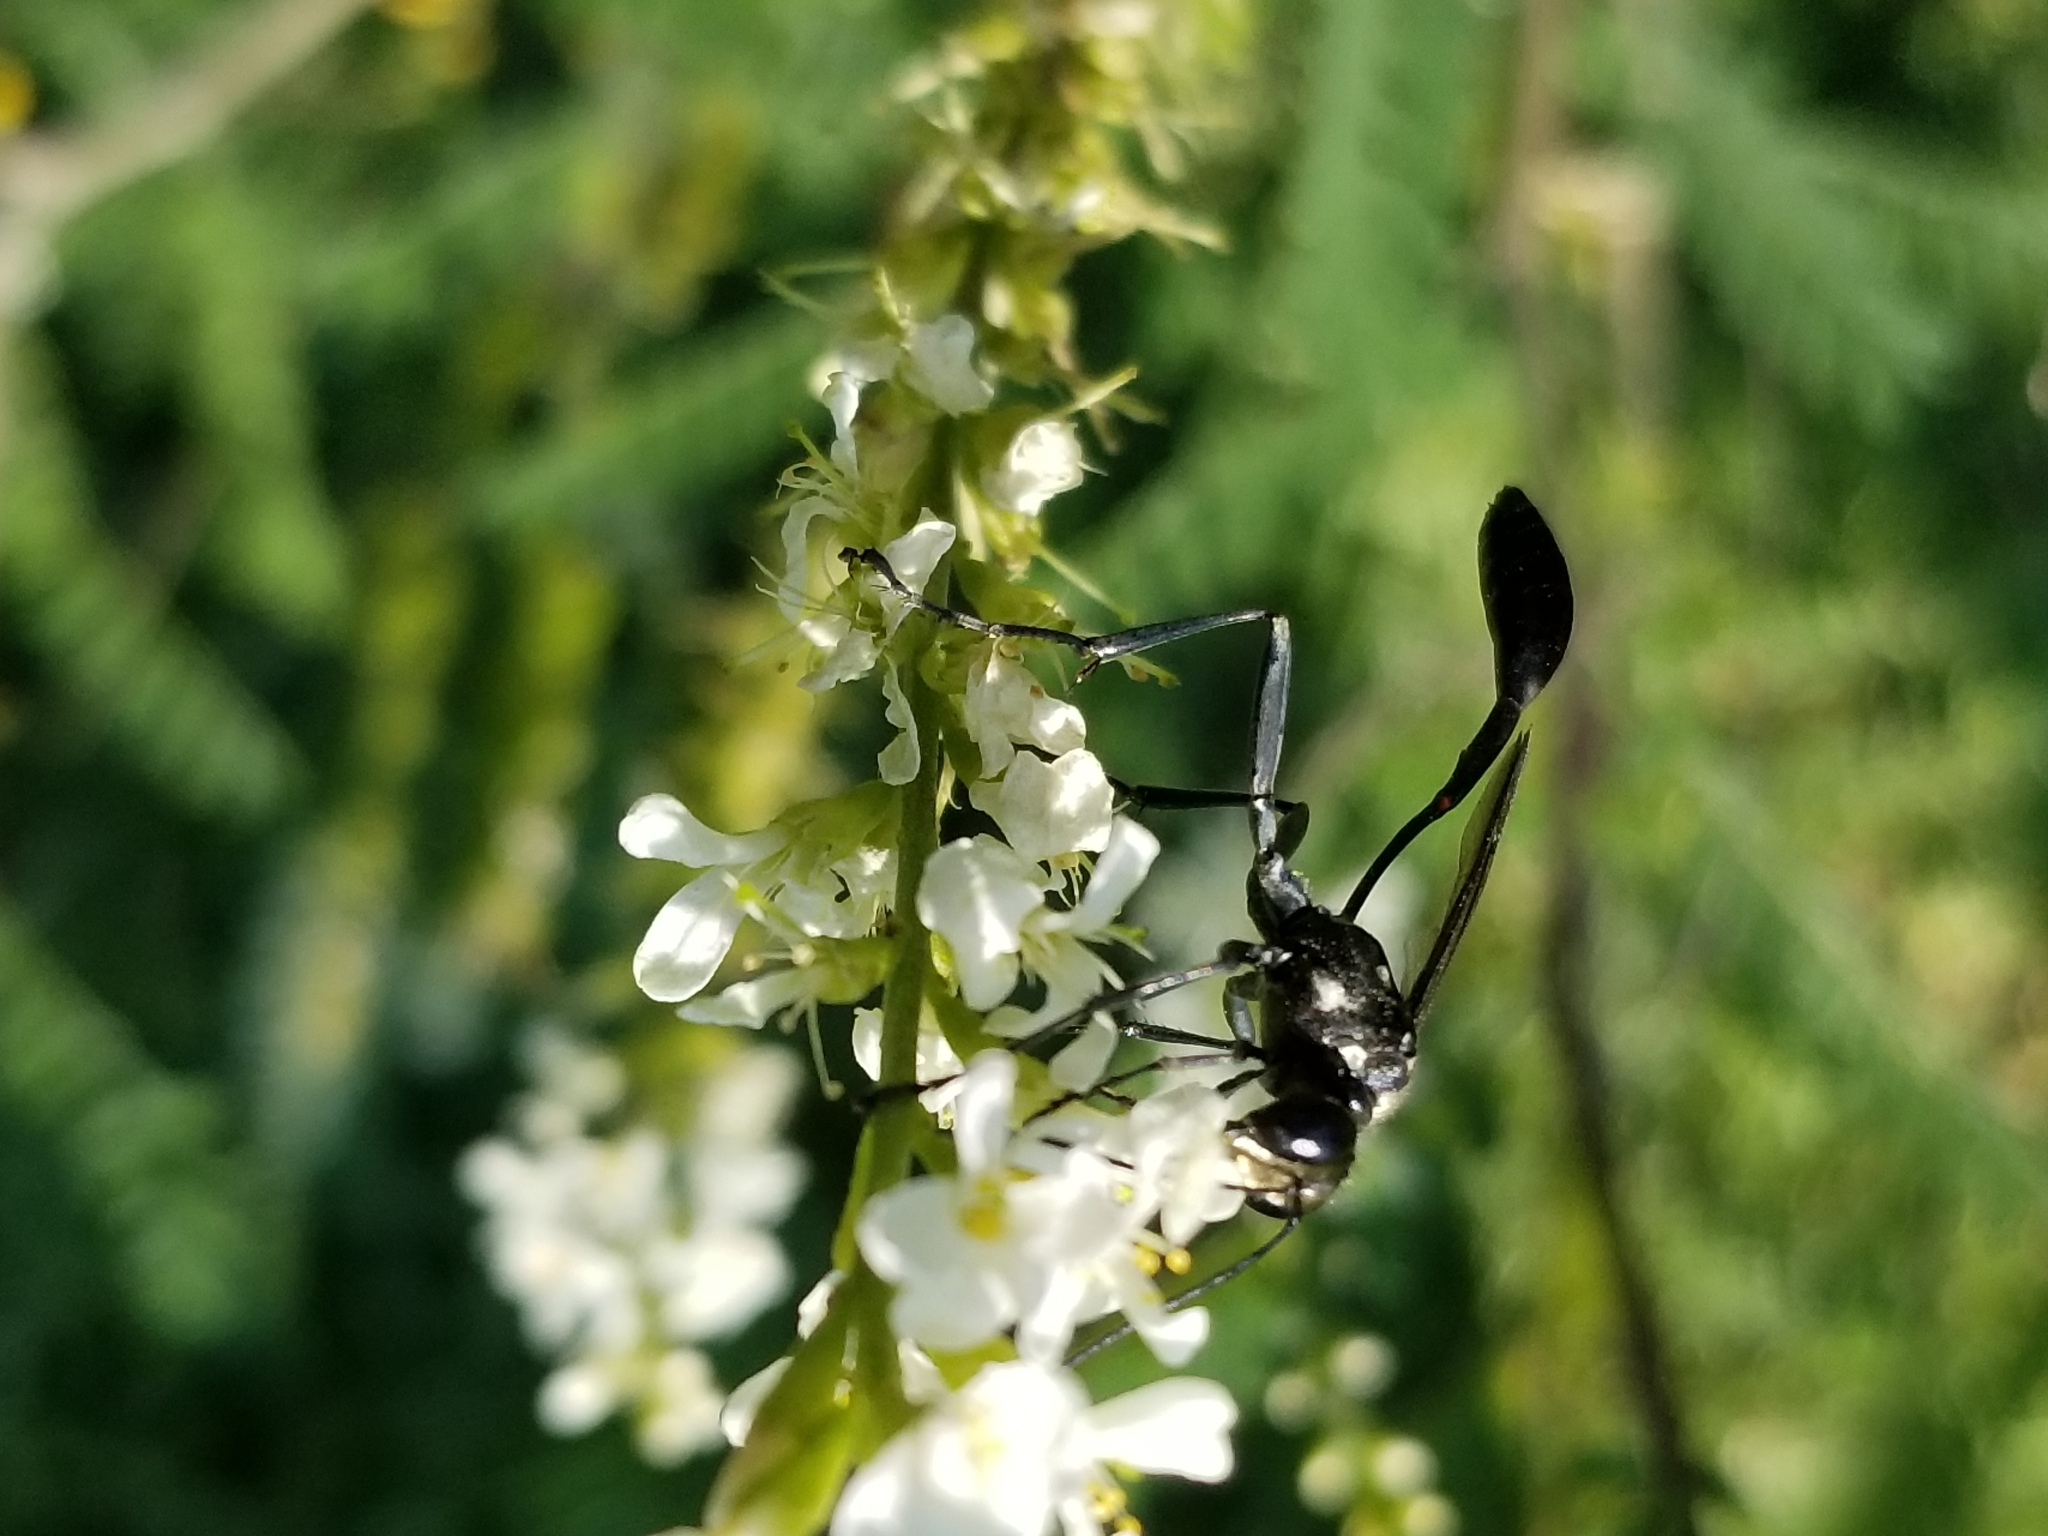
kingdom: Animalia
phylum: Arthropoda
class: Insecta
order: Hymenoptera
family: Sphecidae
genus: Eremnophila
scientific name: Eremnophila aureonotata
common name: Gold-marked thread-waisted wasp
